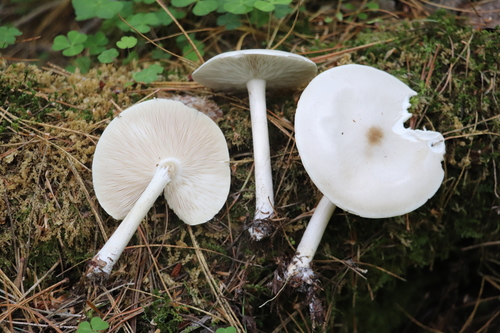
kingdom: Fungi
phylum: Basidiomycota
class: Agaricomycetes
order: Agaricales
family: Tricholomataceae
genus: Melanoleuca
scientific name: Melanoleuca strictipes
